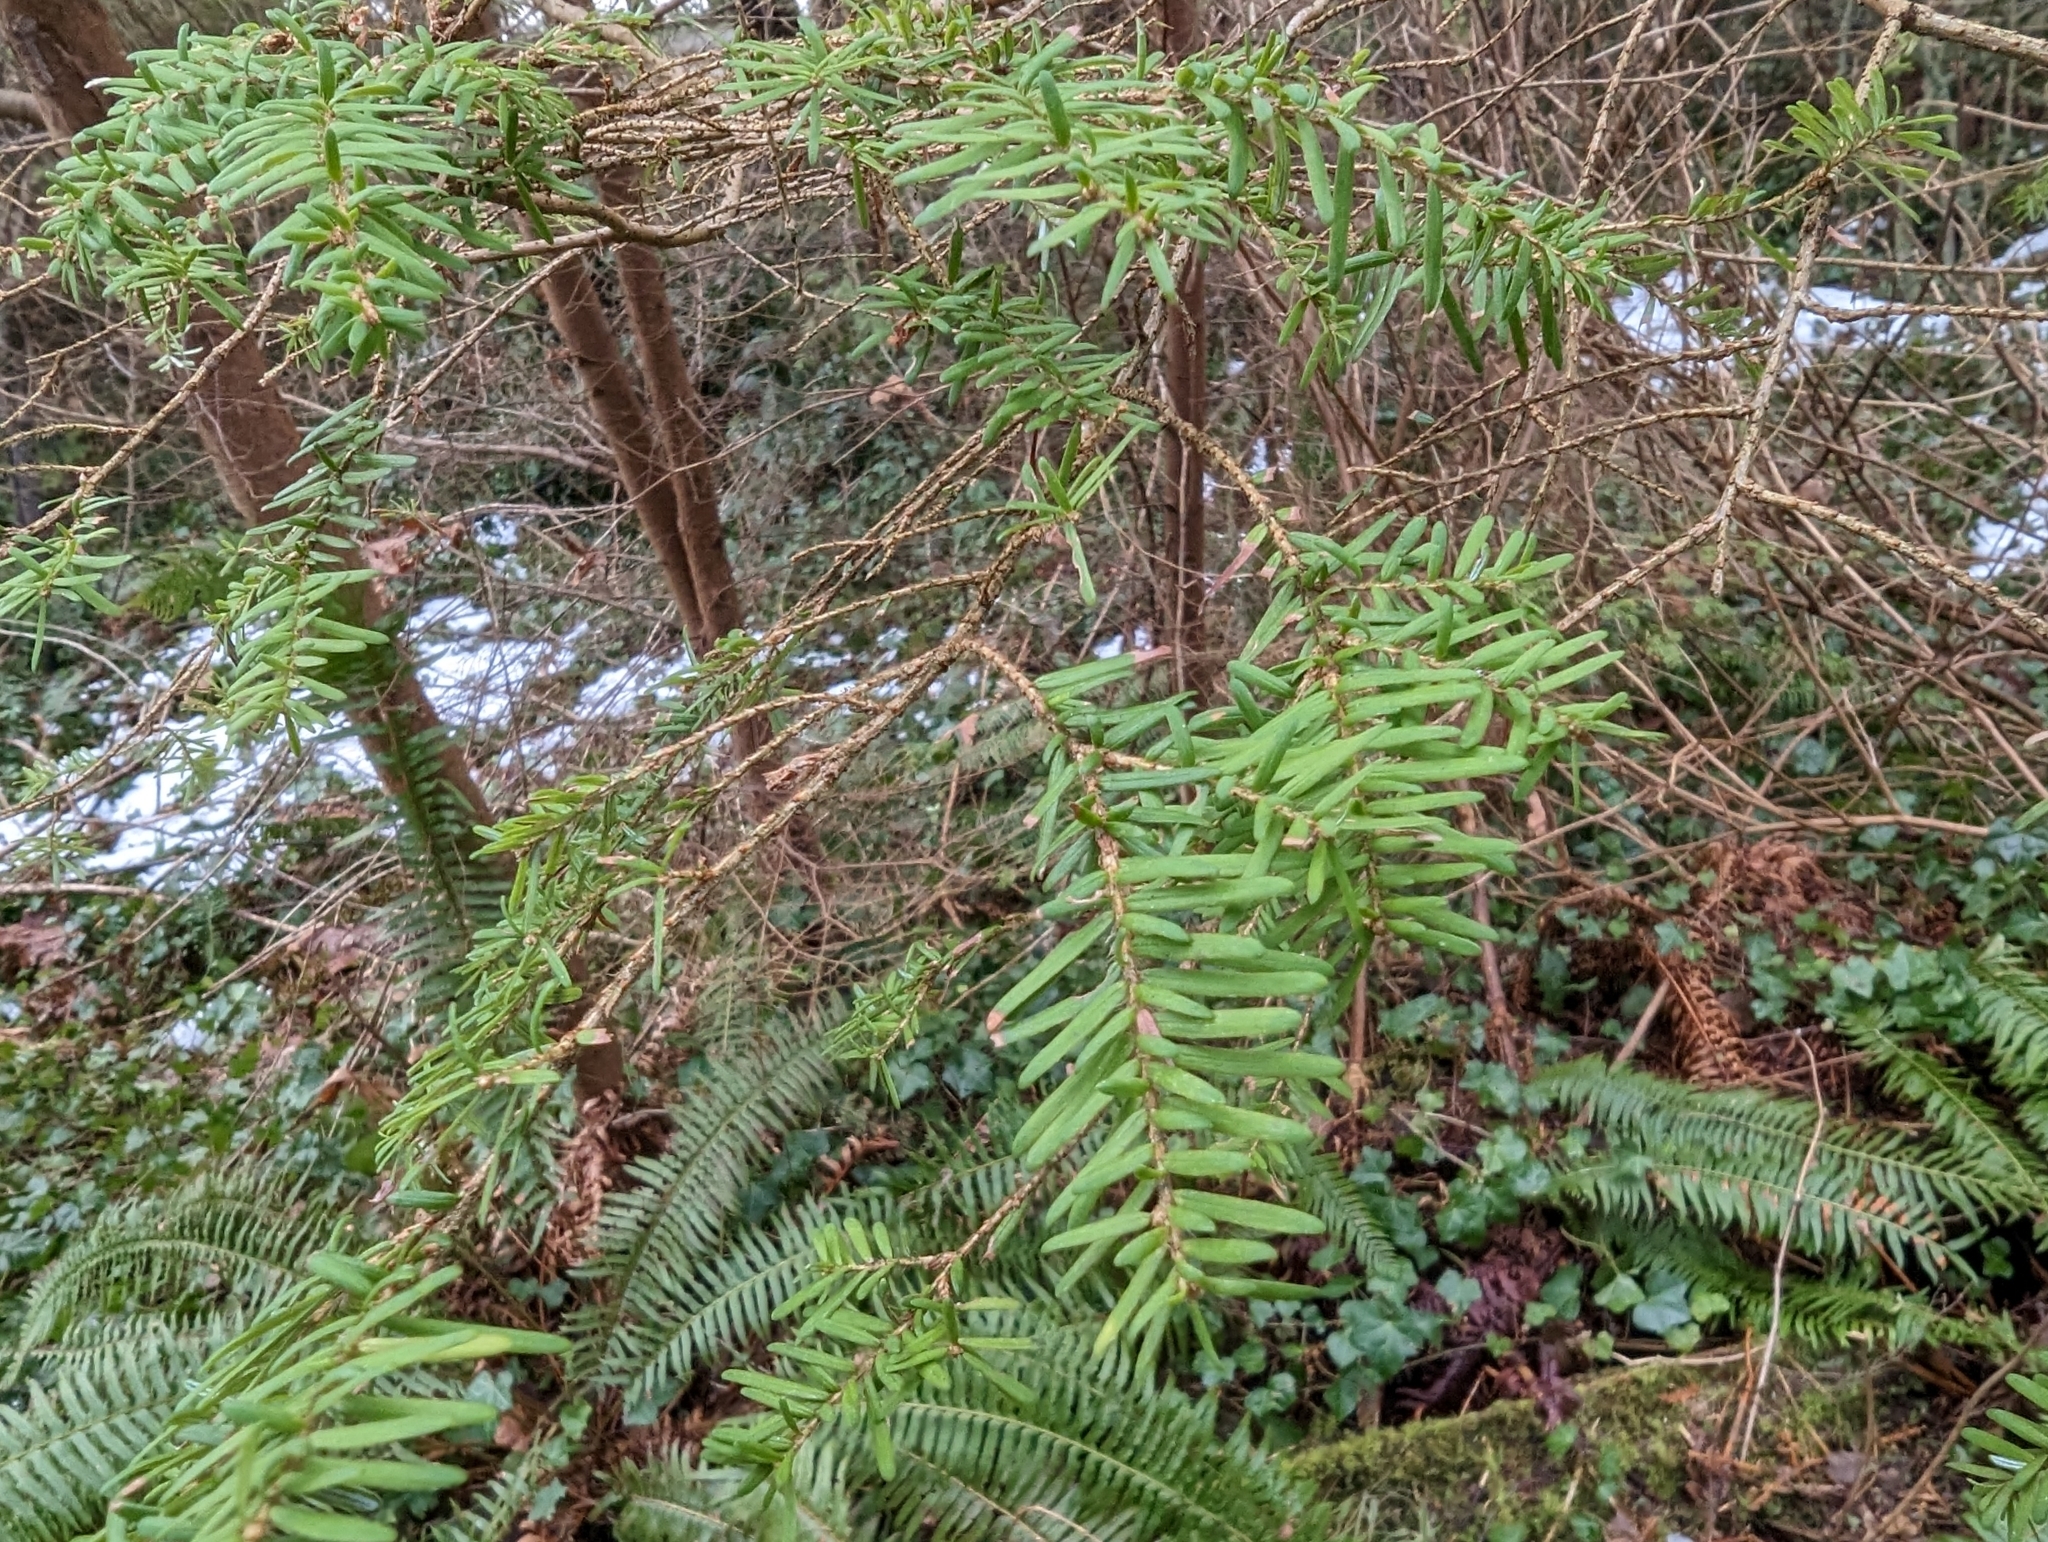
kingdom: Plantae
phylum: Tracheophyta
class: Pinopsida
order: Pinales
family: Pinaceae
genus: Tsuga
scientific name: Tsuga heterophylla
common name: Western hemlock
